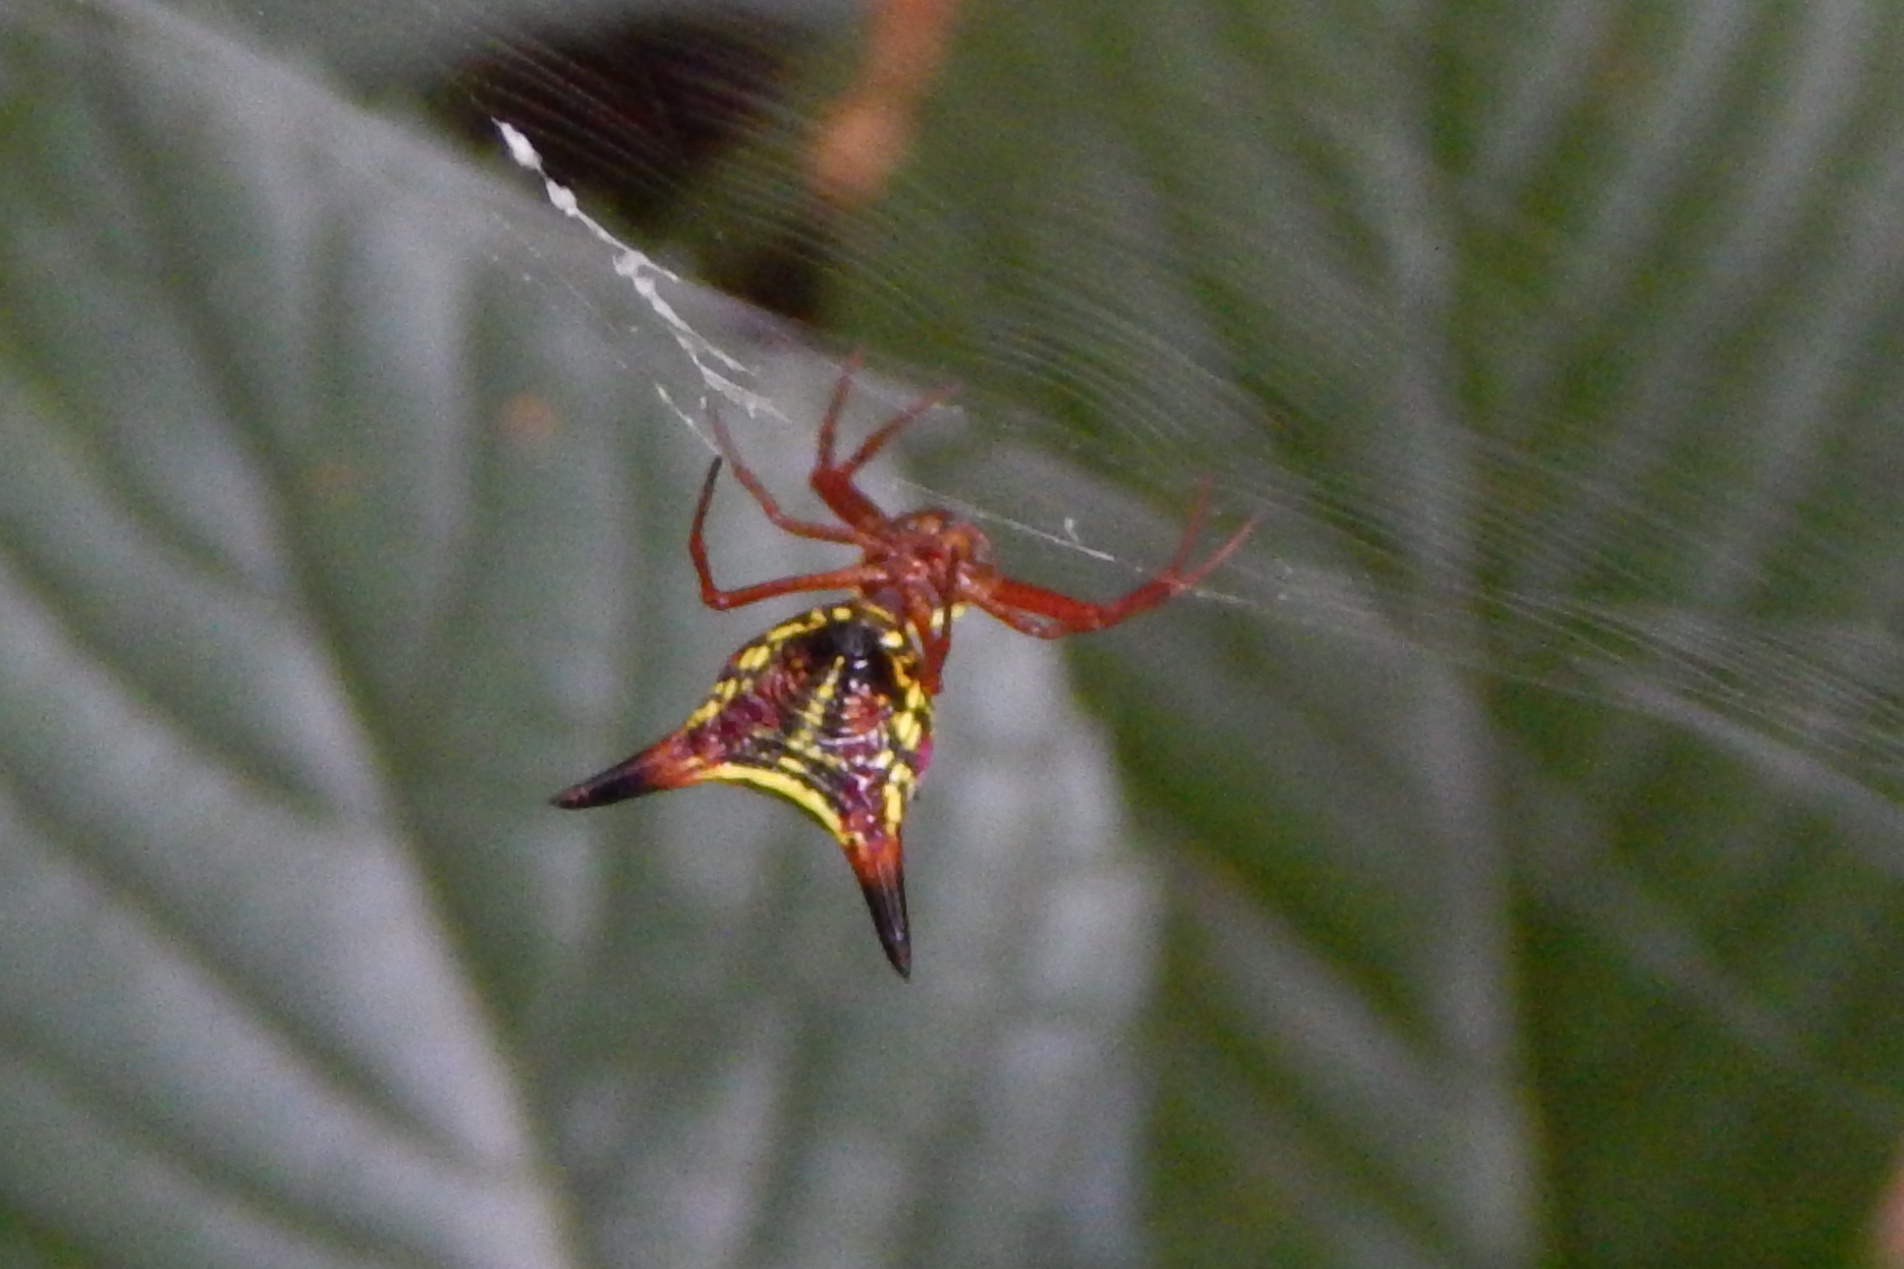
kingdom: Animalia
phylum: Arthropoda
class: Arachnida
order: Araneae
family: Araneidae
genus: Micrathena
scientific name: Micrathena sagittata
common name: Orb weavers
